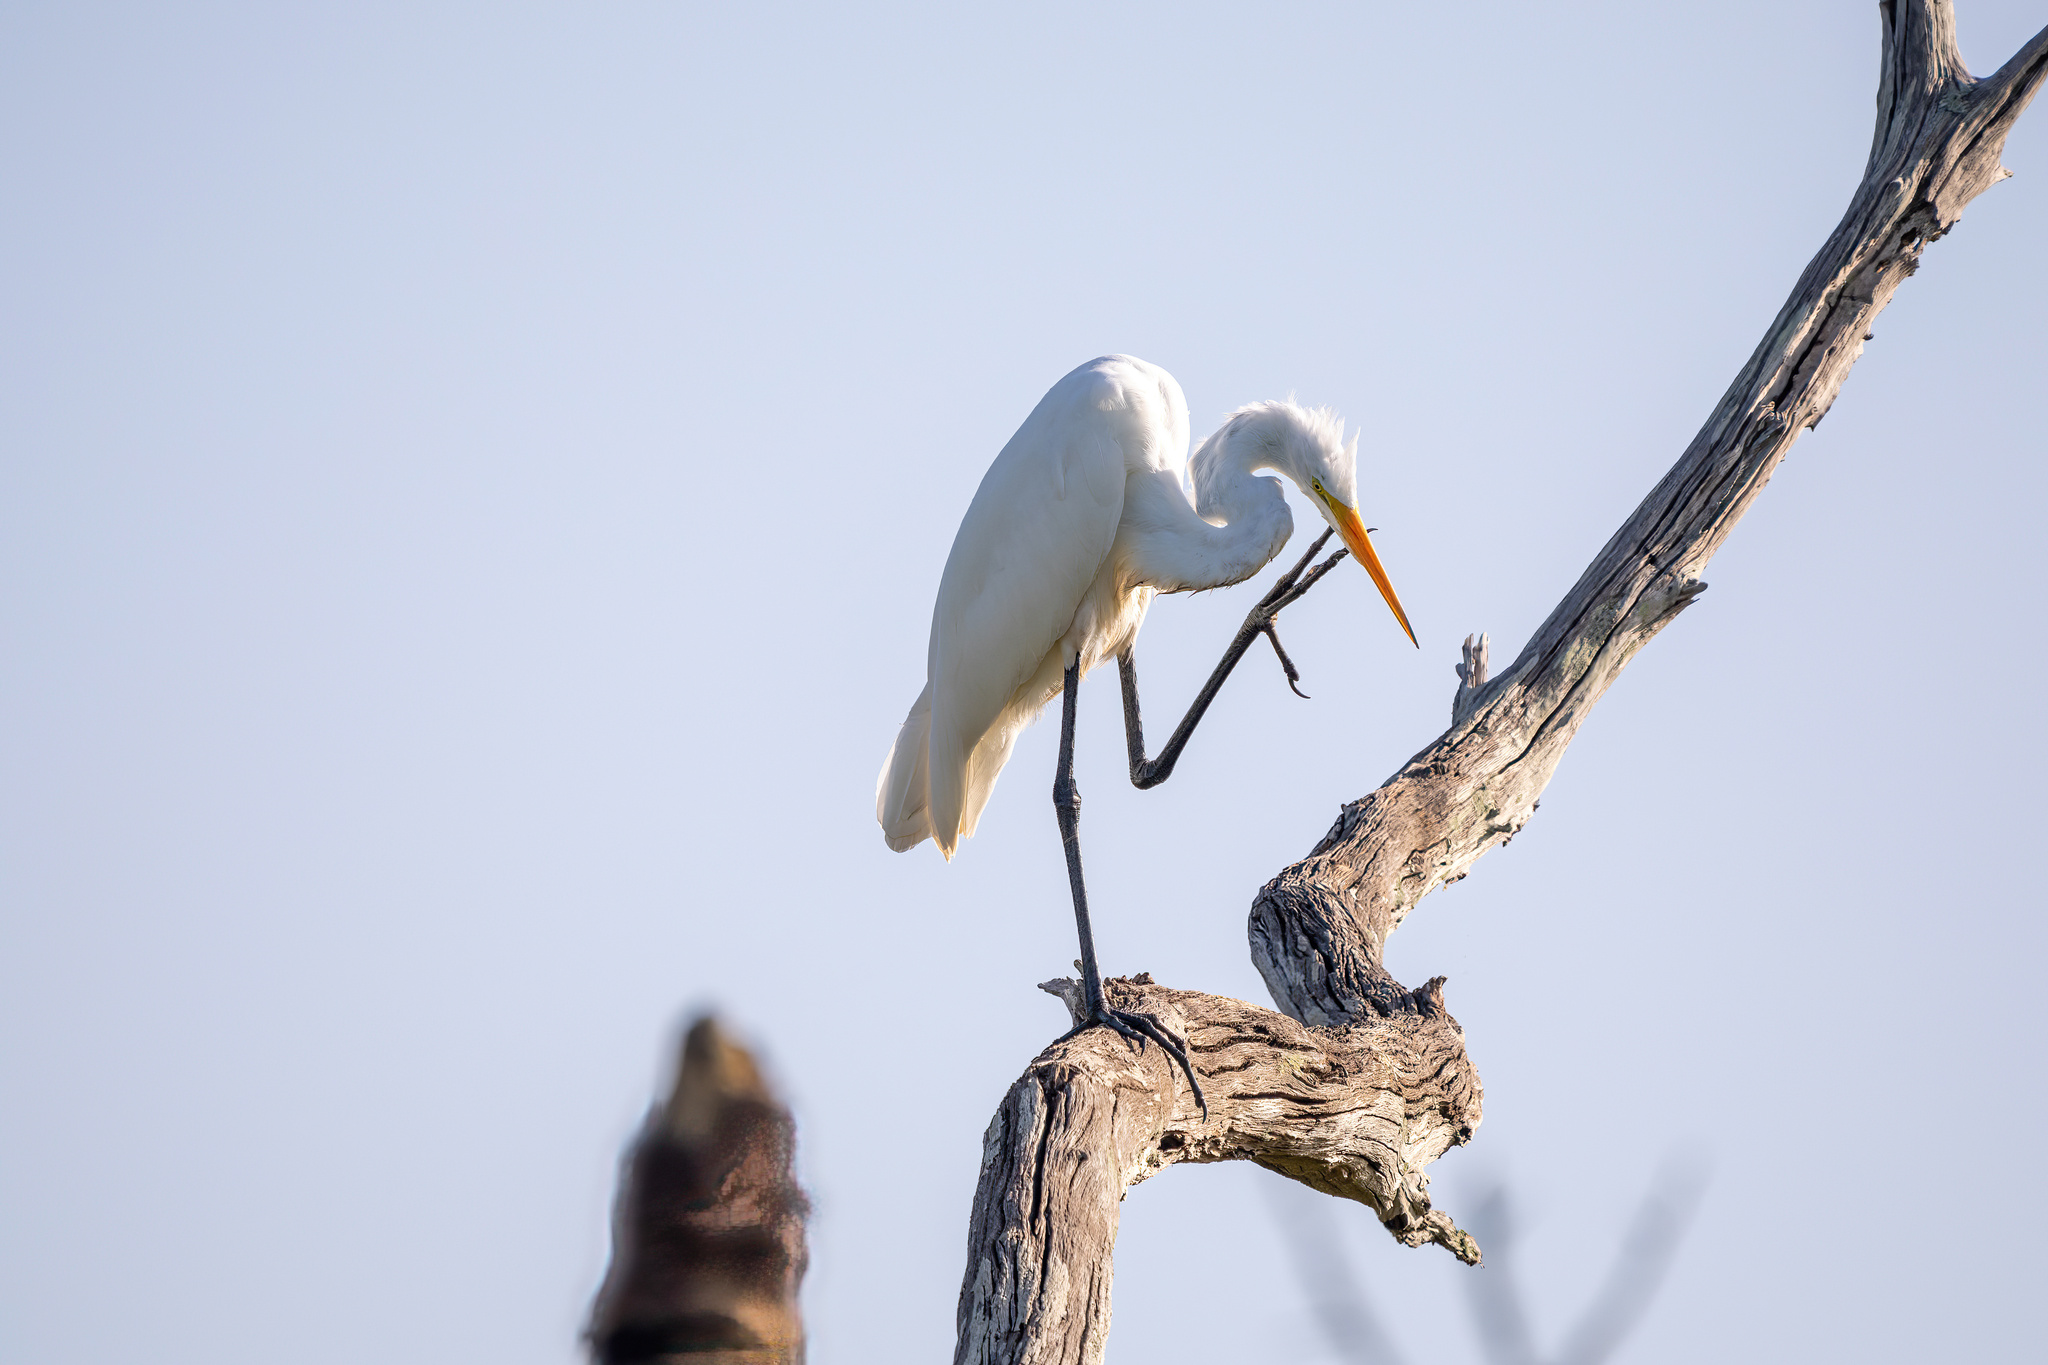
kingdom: Animalia
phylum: Chordata
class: Aves
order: Pelecaniformes
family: Ardeidae
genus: Ardea
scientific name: Ardea alba
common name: Great egret
